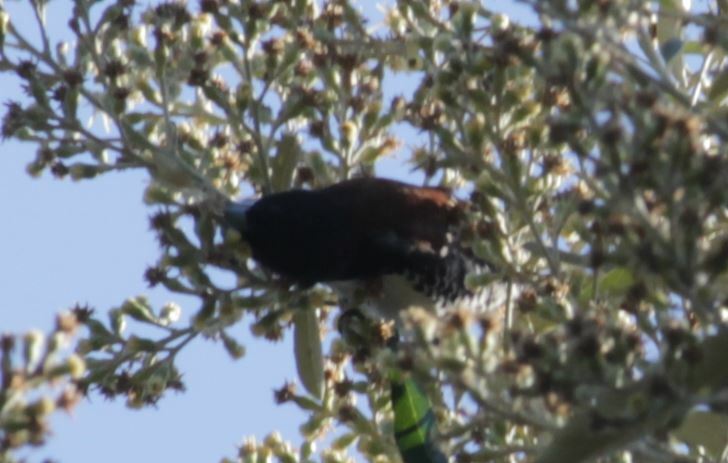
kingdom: Animalia
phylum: Chordata
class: Aves
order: Passeriformes
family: Estrildidae
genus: Lonchura
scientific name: Lonchura nigriceps
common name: Red-backed mannikin
